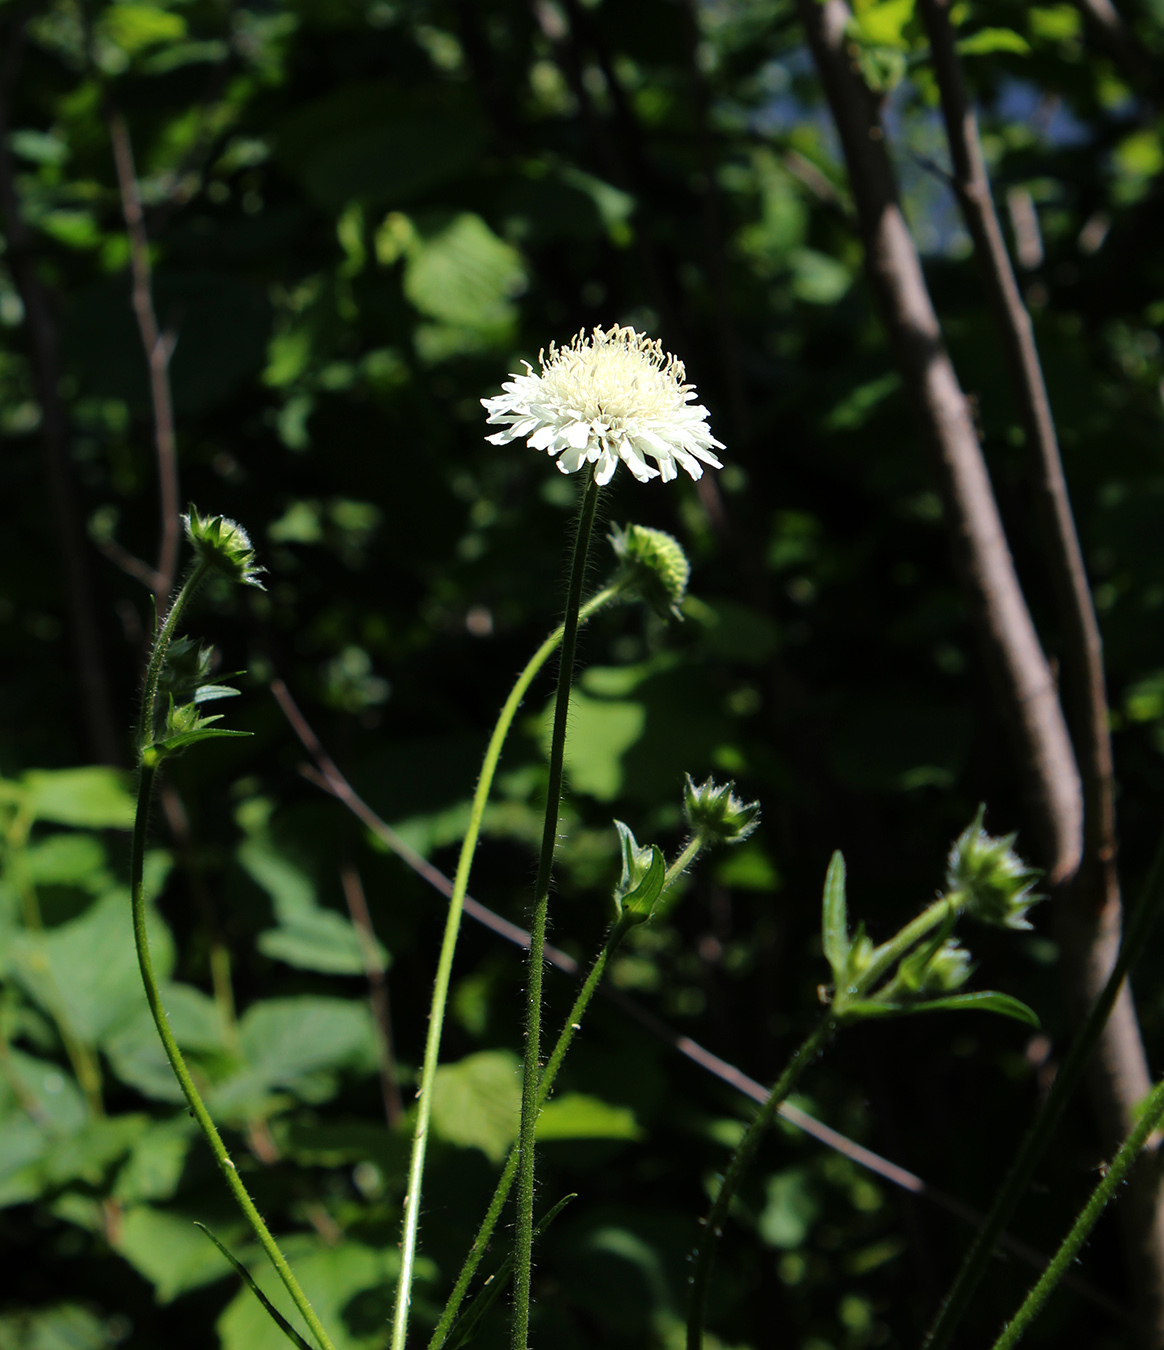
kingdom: Plantae
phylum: Tracheophyta
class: Magnoliopsida
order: Dipsacales
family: Caprifoliaceae
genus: Knautia
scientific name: Knautia involucrata
